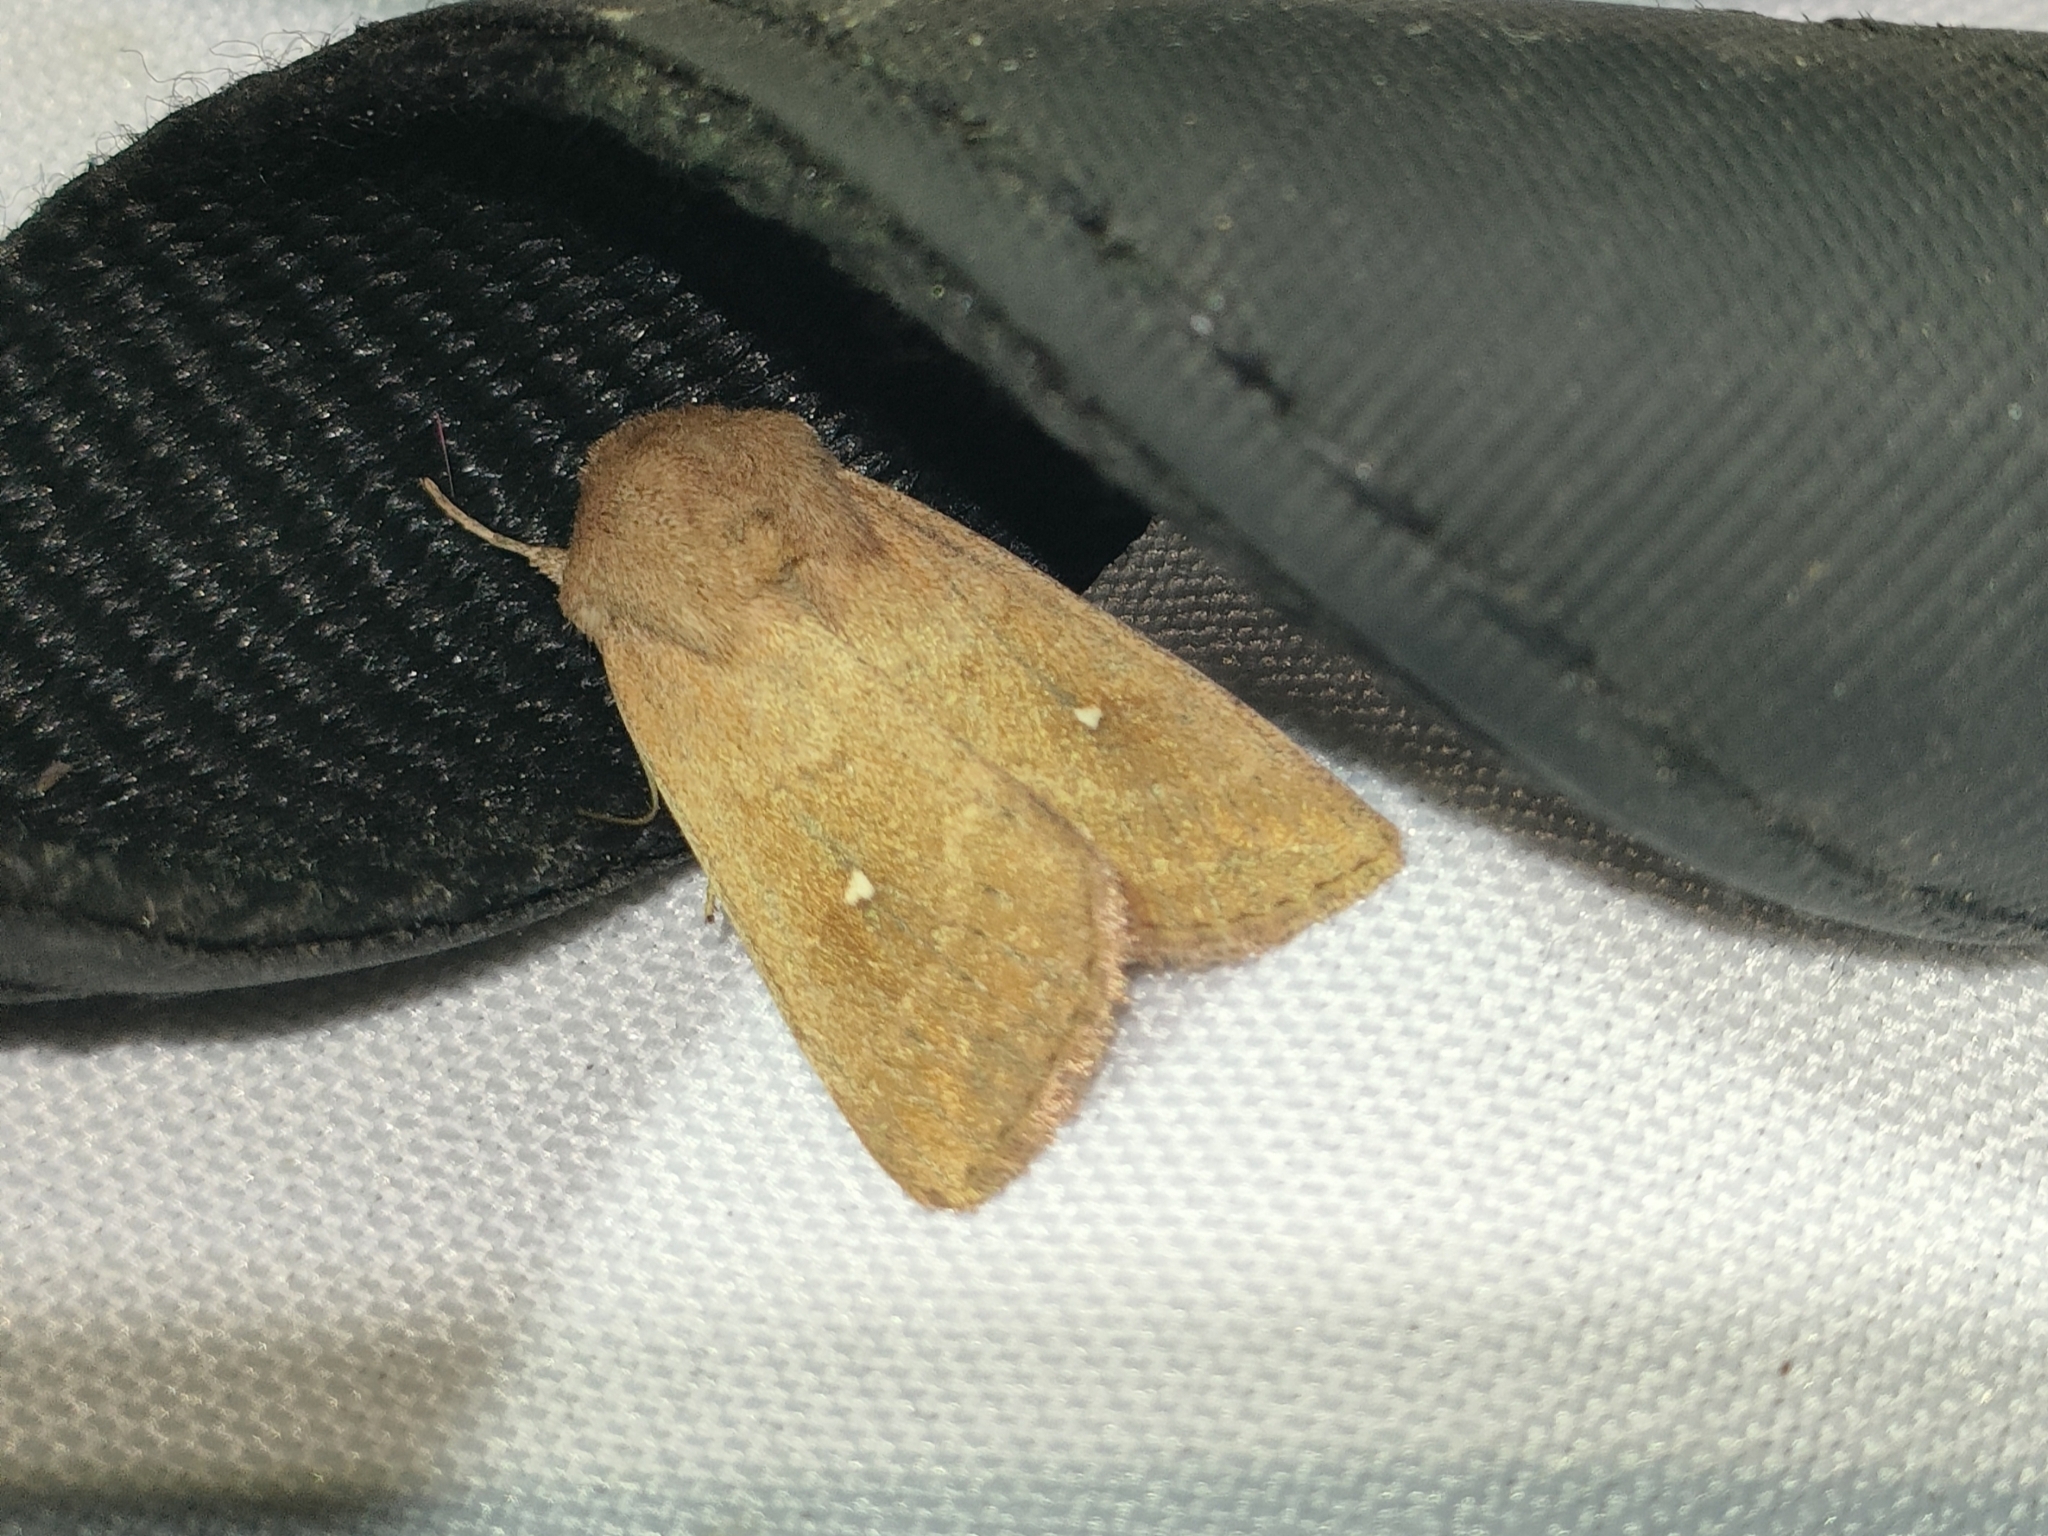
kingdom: Animalia
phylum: Arthropoda
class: Insecta
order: Lepidoptera
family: Noctuidae
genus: Mythimna
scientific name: Mythimna albipuncta
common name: White-point
